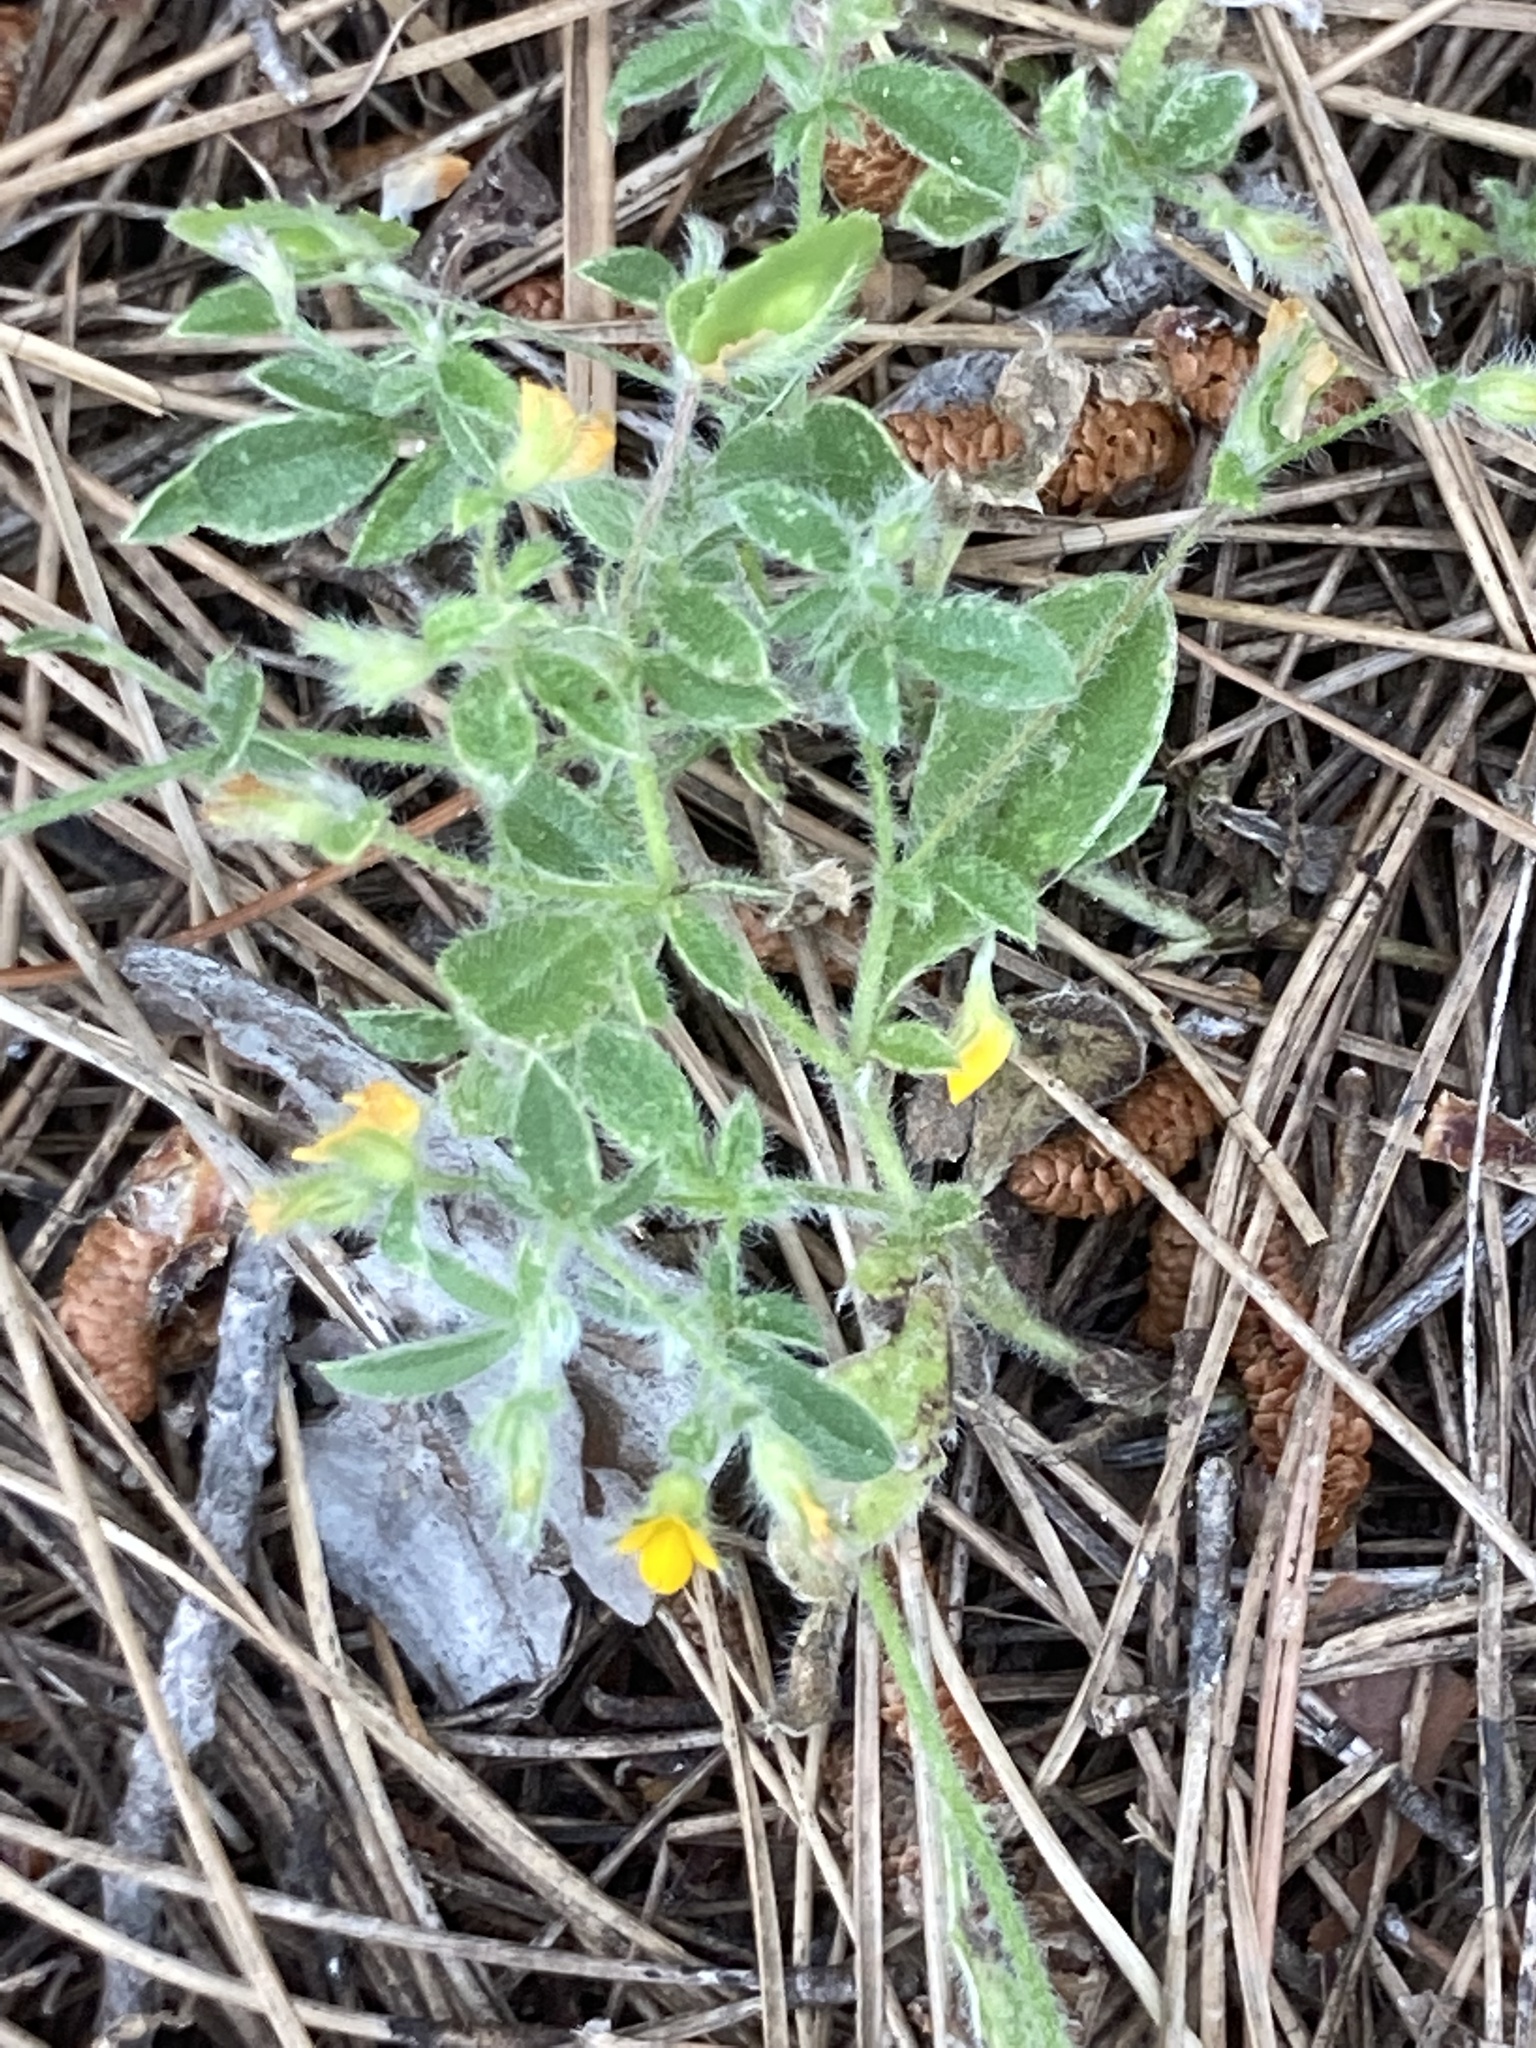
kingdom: Plantae
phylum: Tracheophyta
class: Magnoliopsida
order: Fabales
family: Fabaceae
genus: Anthyllis
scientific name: Anthyllis circinnata
